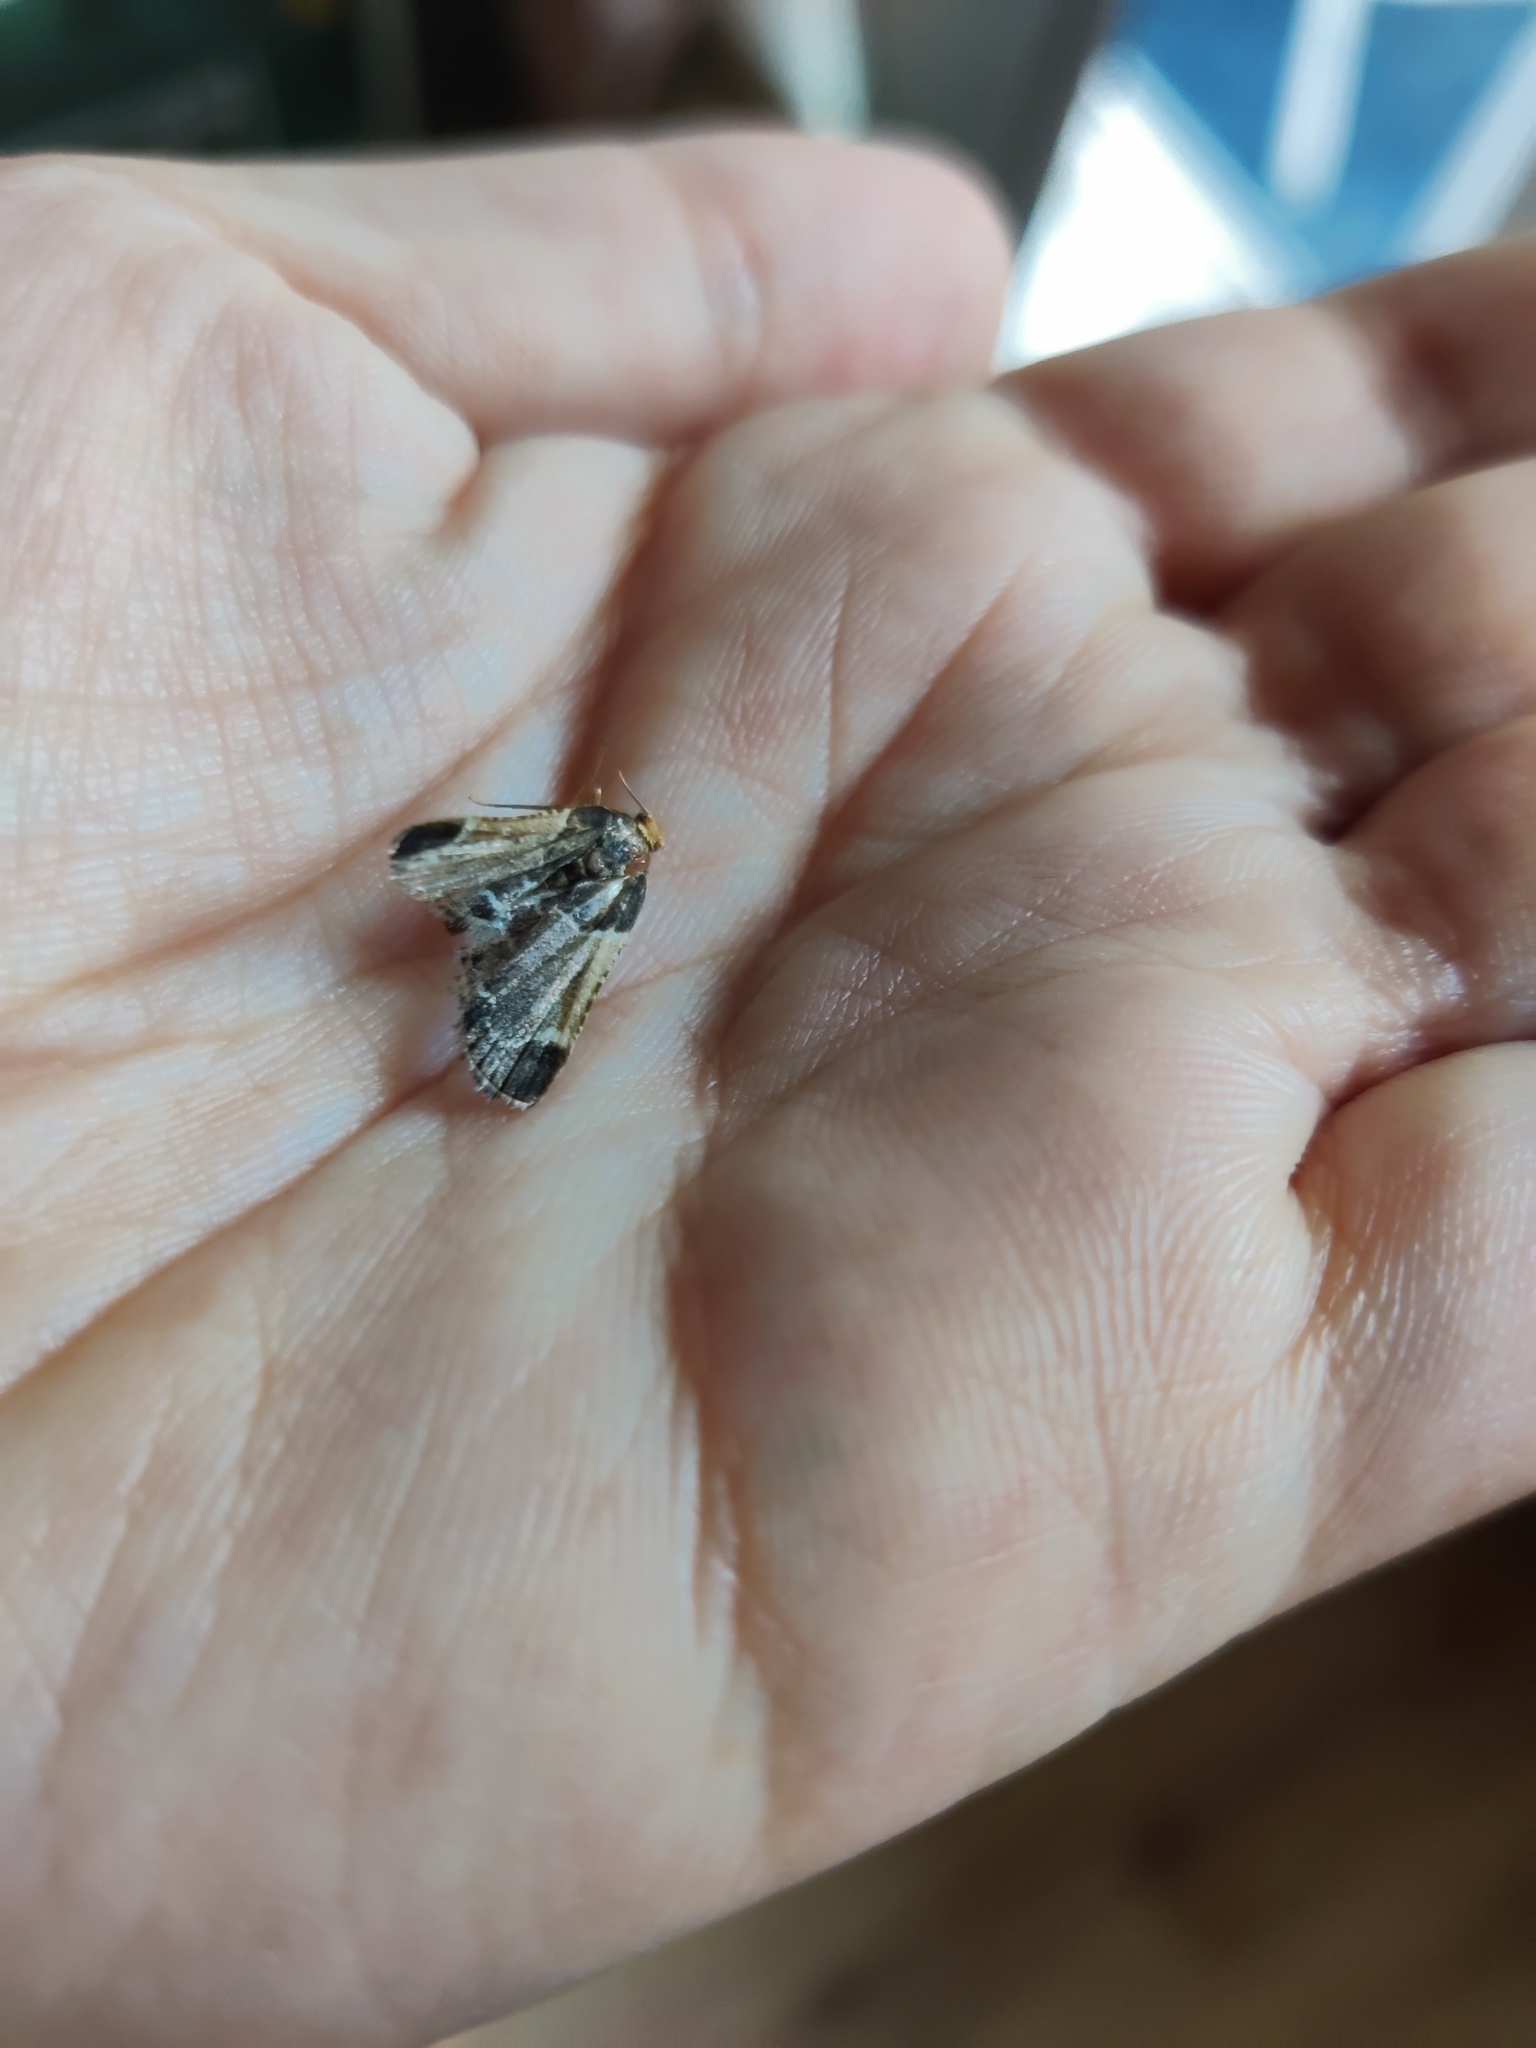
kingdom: Animalia
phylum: Arthropoda
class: Insecta
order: Lepidoptera
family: Pyralidae
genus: Pyralis
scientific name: Pyralis farinalis
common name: Meal moth
